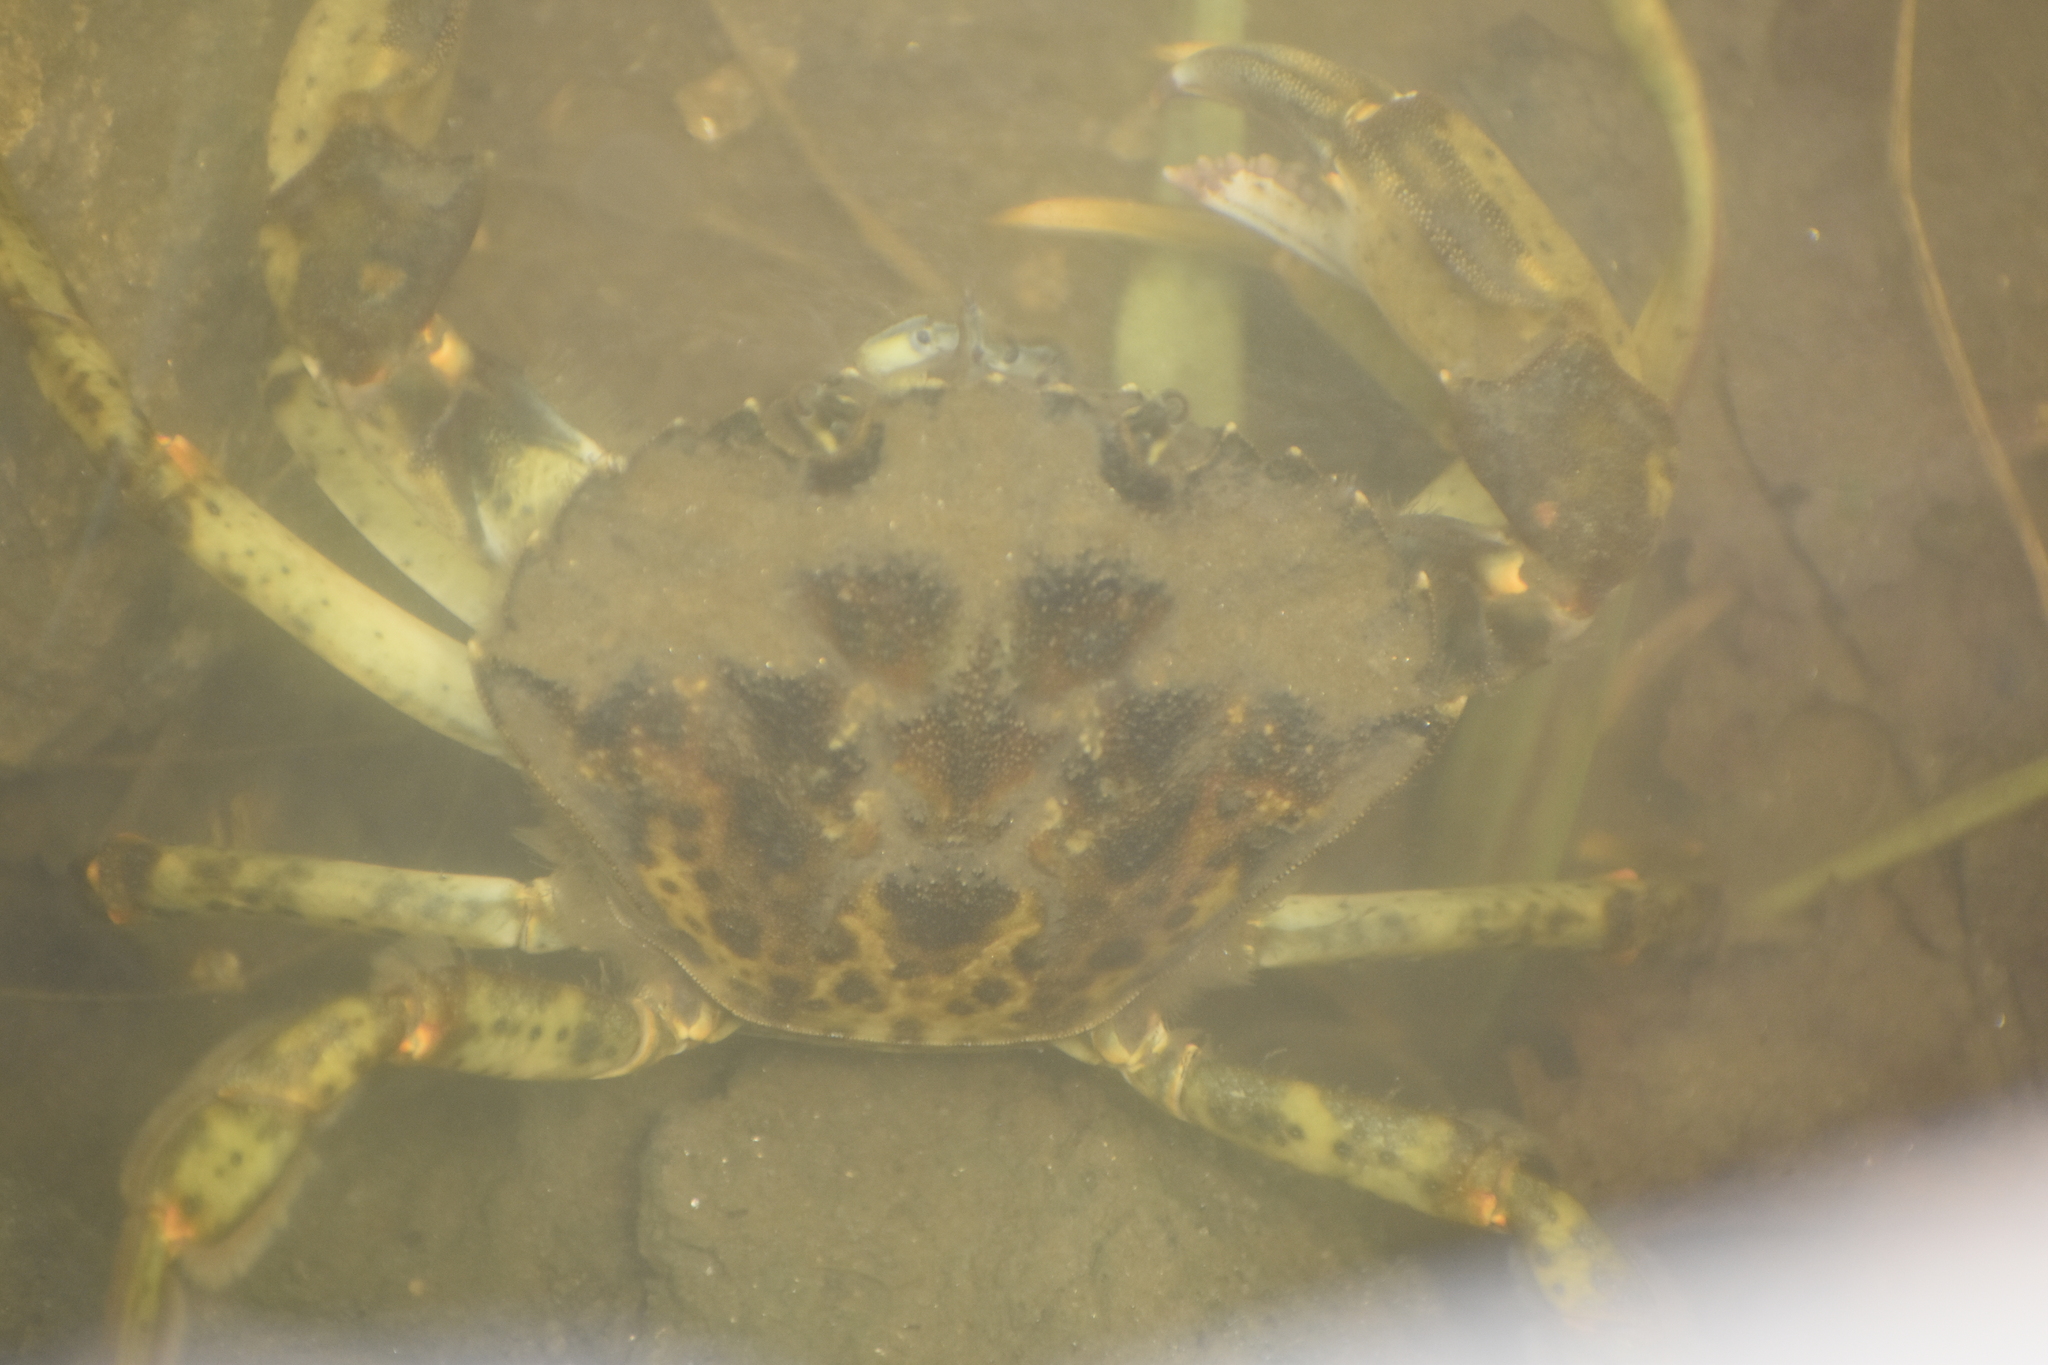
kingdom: Animalia
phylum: Arthropoda
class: Malacostraca
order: Decapoda
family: Carcinidae
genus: Carcinus
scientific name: Carcinus maenas
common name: European green crab
